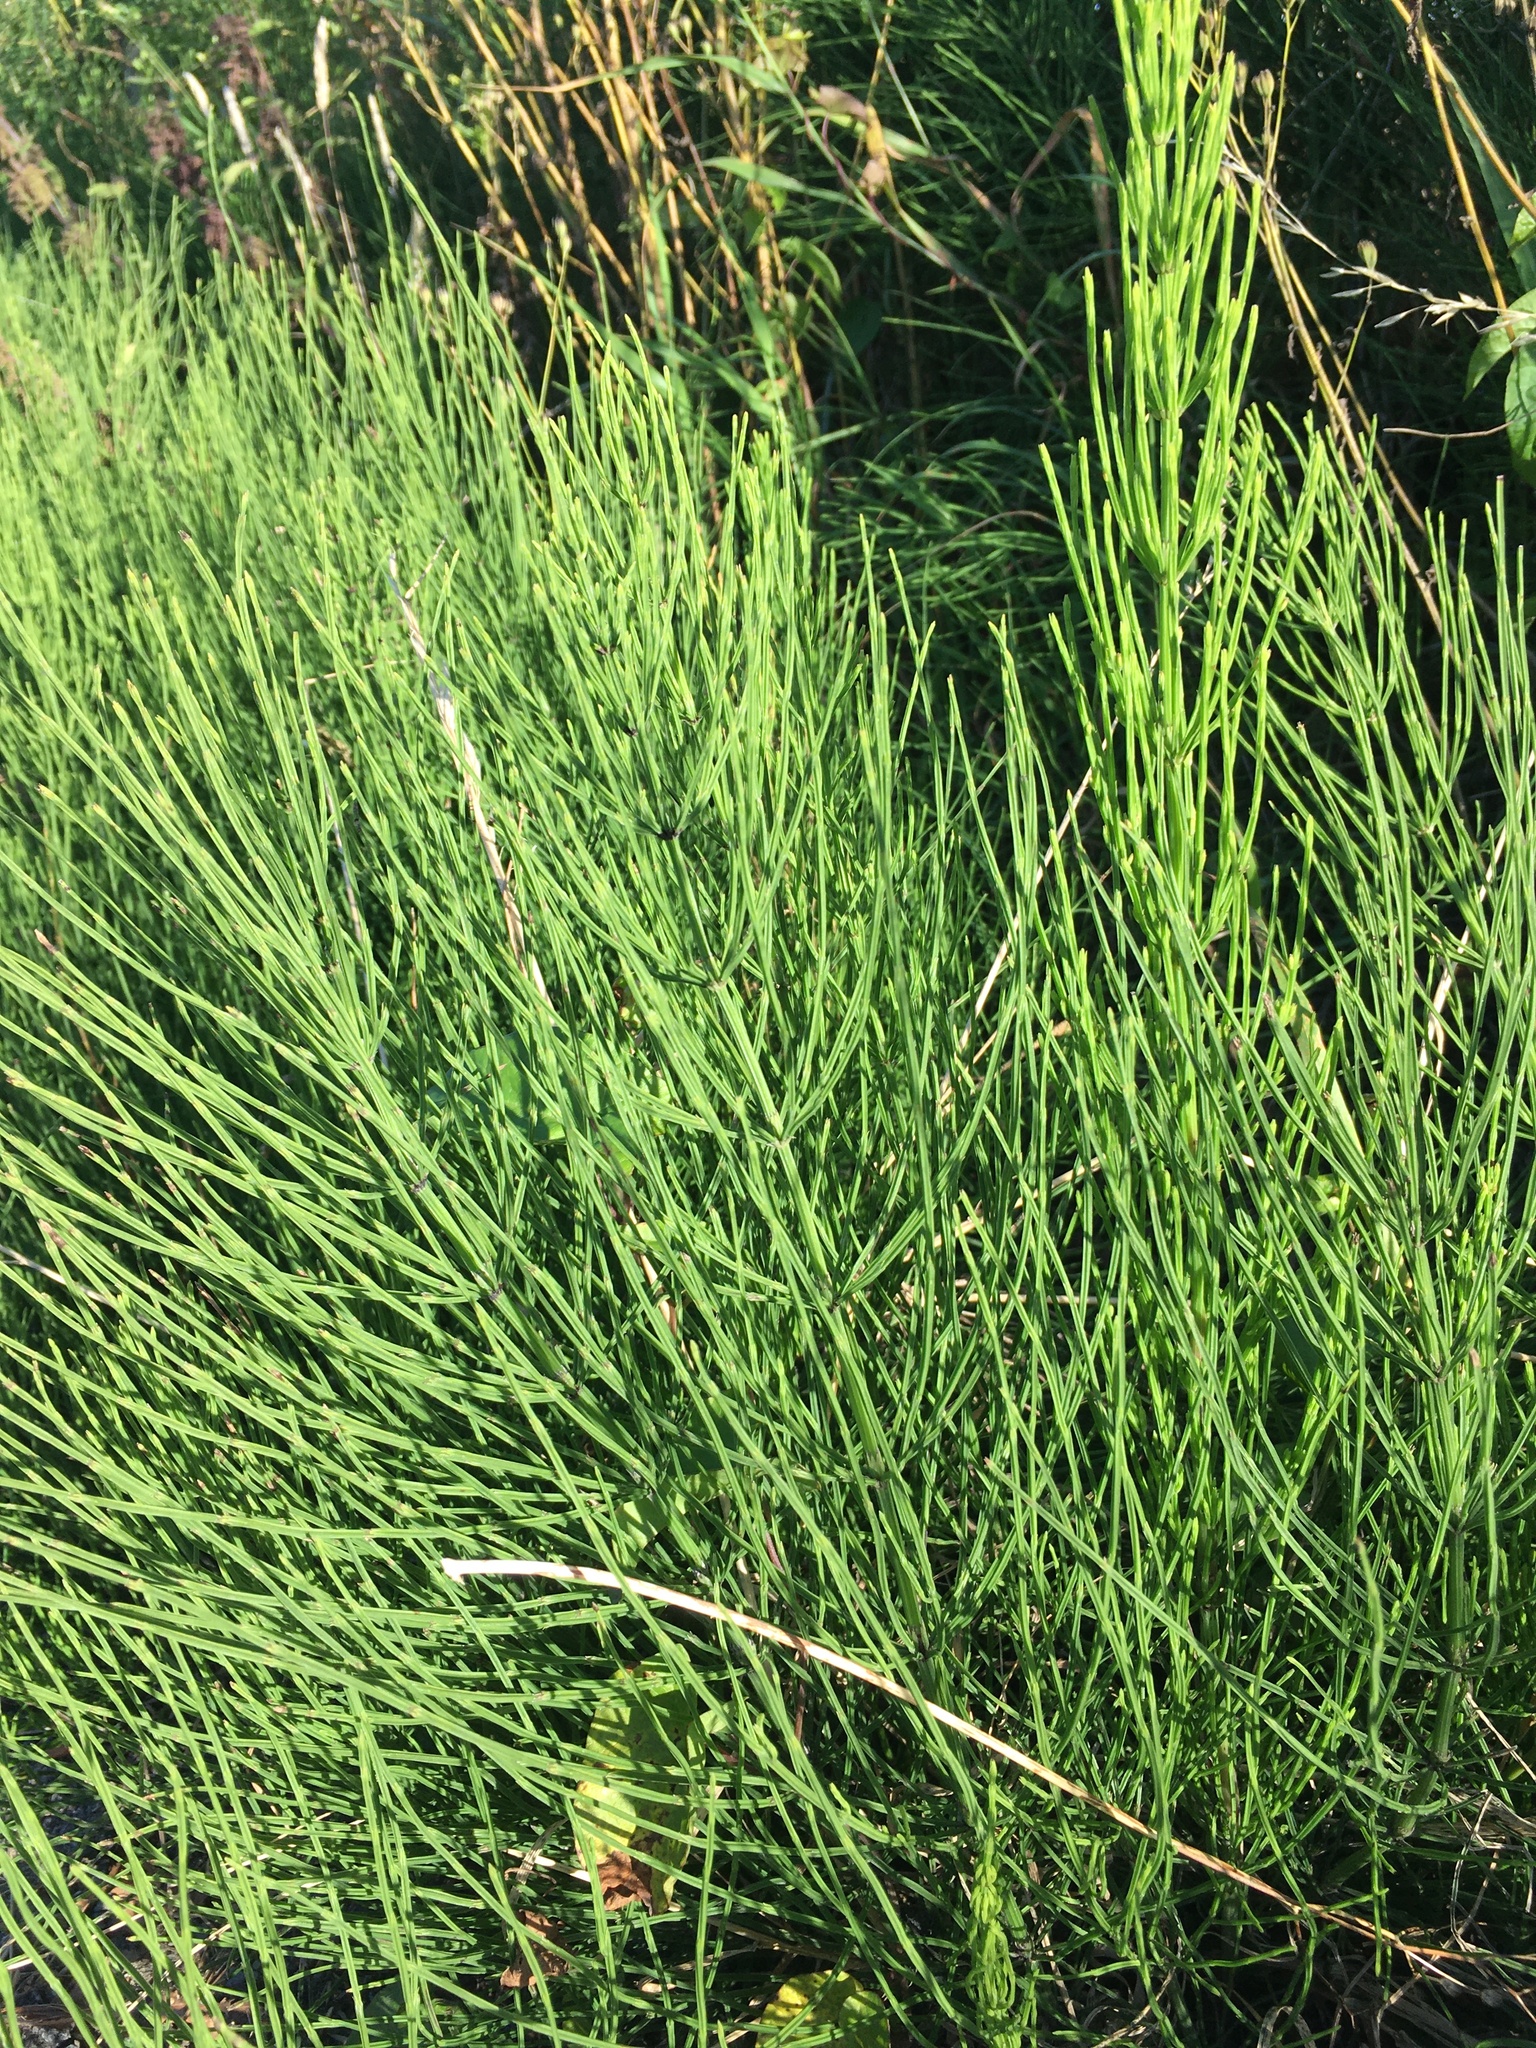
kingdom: Plantae
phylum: Tracheophyta
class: Polypodiopsida
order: Equisetales
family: Equisetaceae
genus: Equisetum
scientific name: Equisetum arvense
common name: Field horsetail
